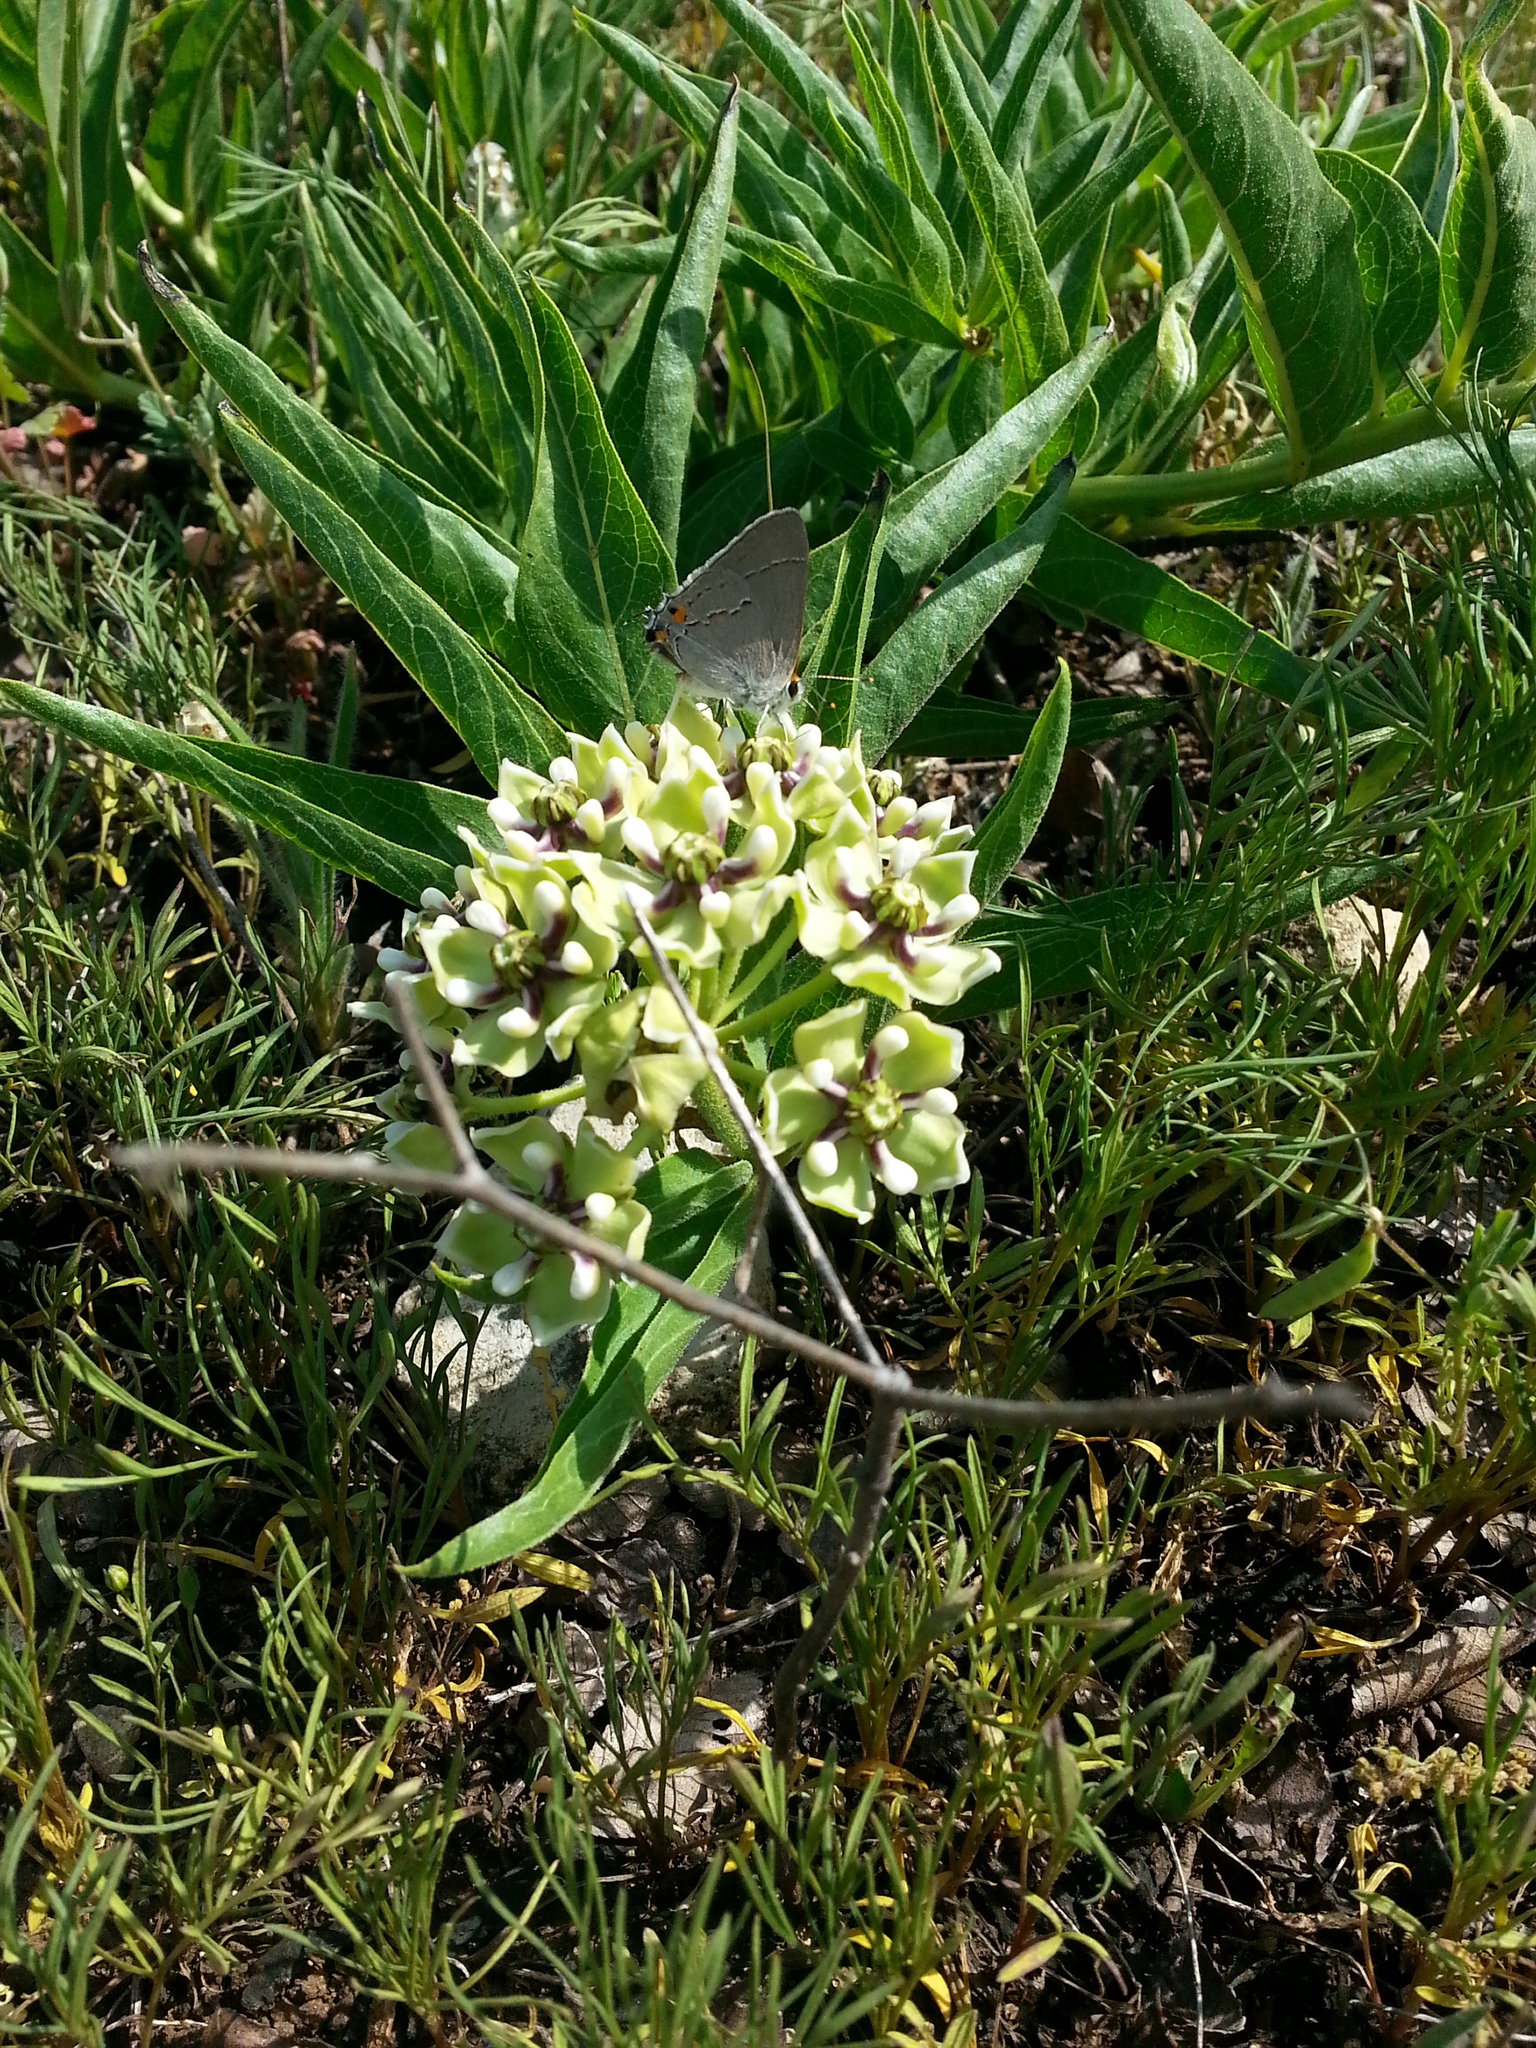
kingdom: Plantae
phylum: Tracheophyta
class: Magnoliopsida
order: Gentianales
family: Apocynaceae
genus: Asclepias
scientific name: Asclepias asperula
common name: Antelope horns
